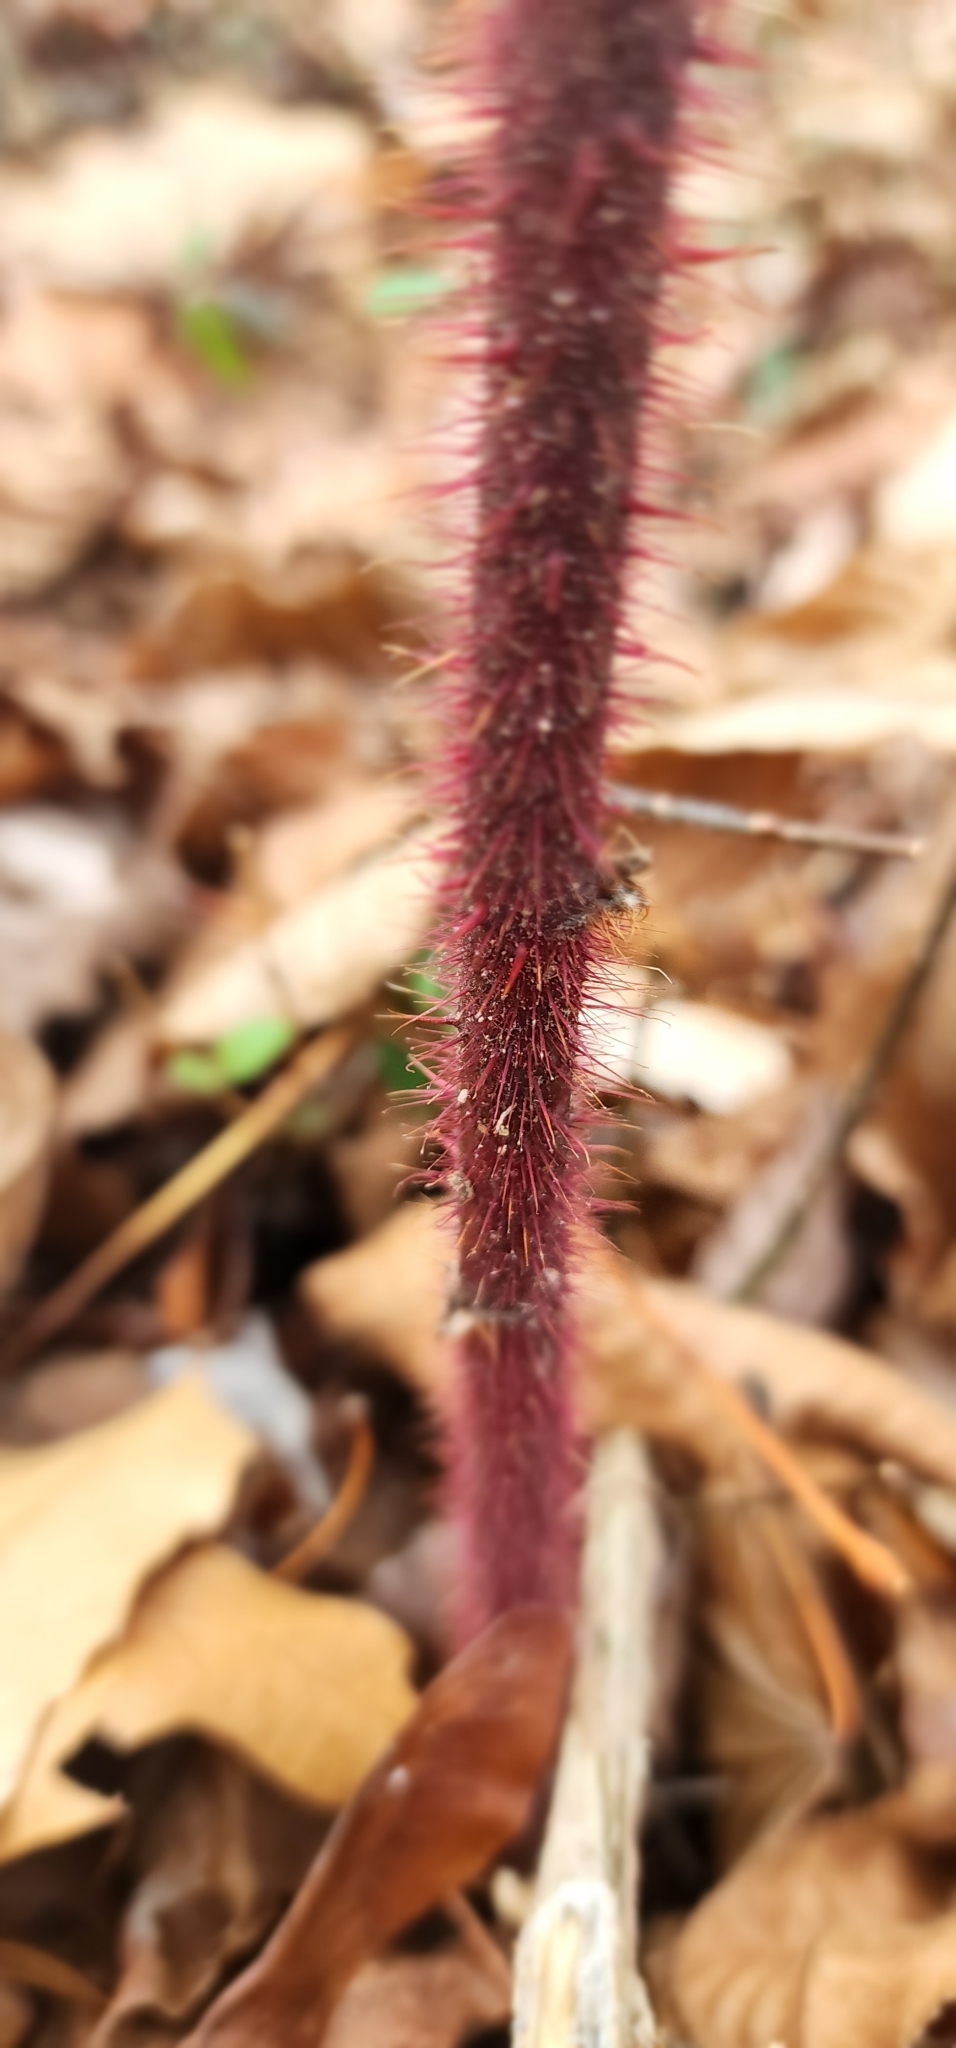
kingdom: Plantae
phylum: Tracheophyta
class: Magnoliopsida
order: Rosales
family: Rosaceae
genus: Rubus
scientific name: Rubus phoenicolasius
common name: Japanese wineberry
